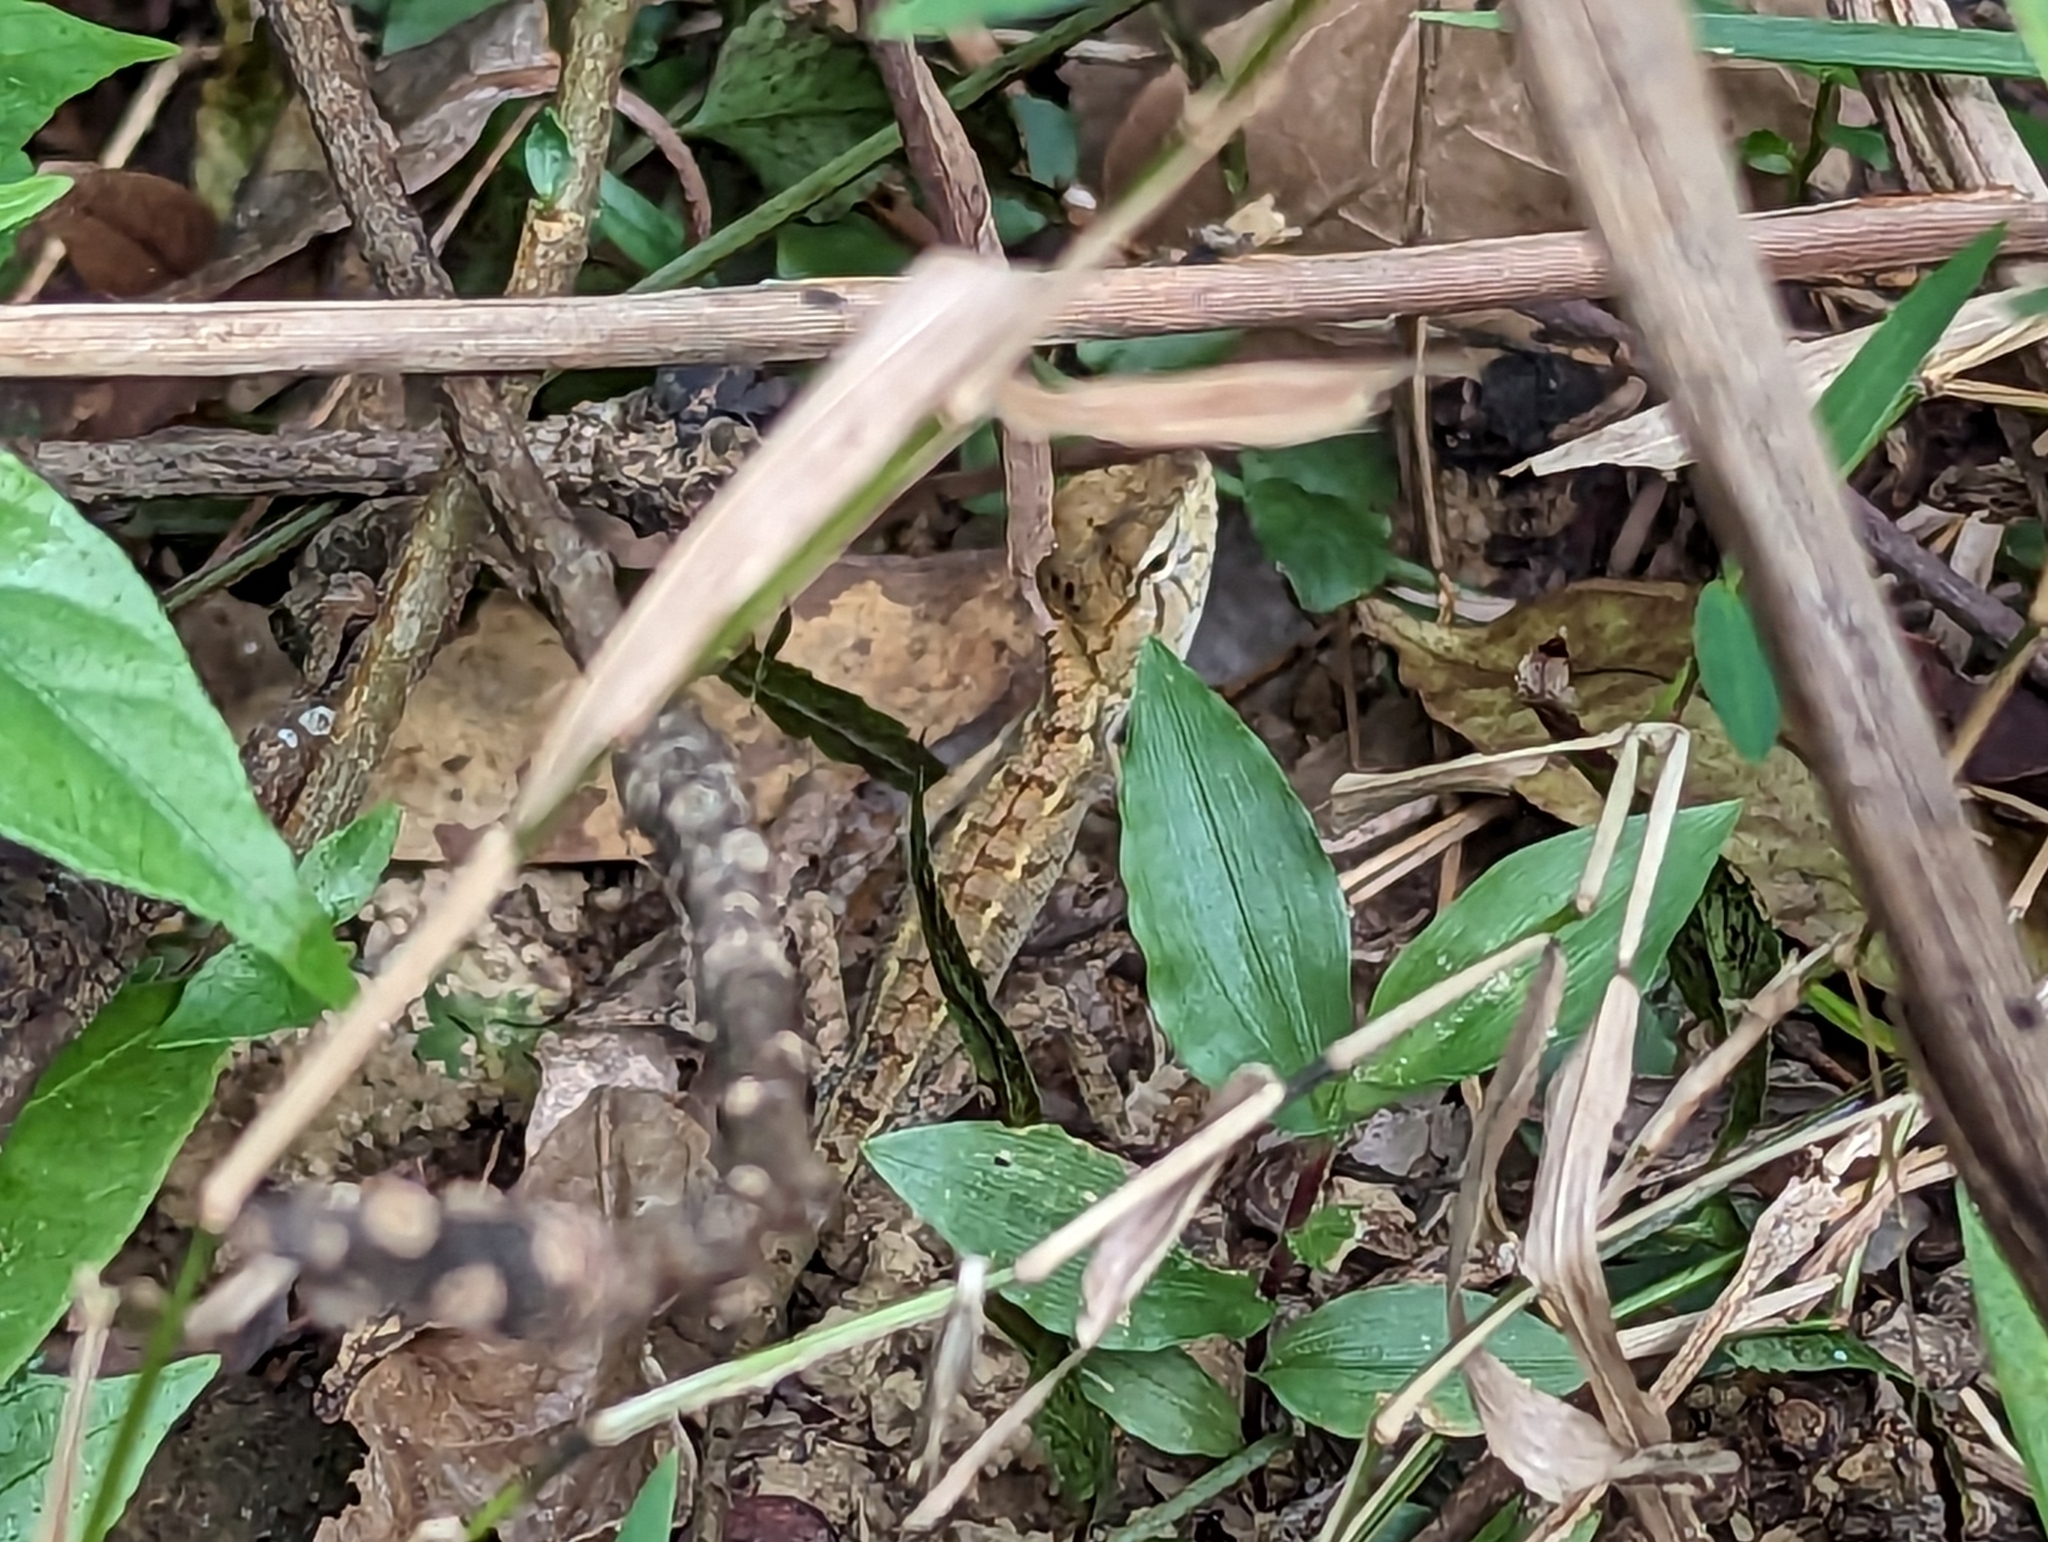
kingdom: Animalia
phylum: Chordata
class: Squamata
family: Agamidae
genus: Calotes
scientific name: Calotes versicolor
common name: Oriental garden lizard
